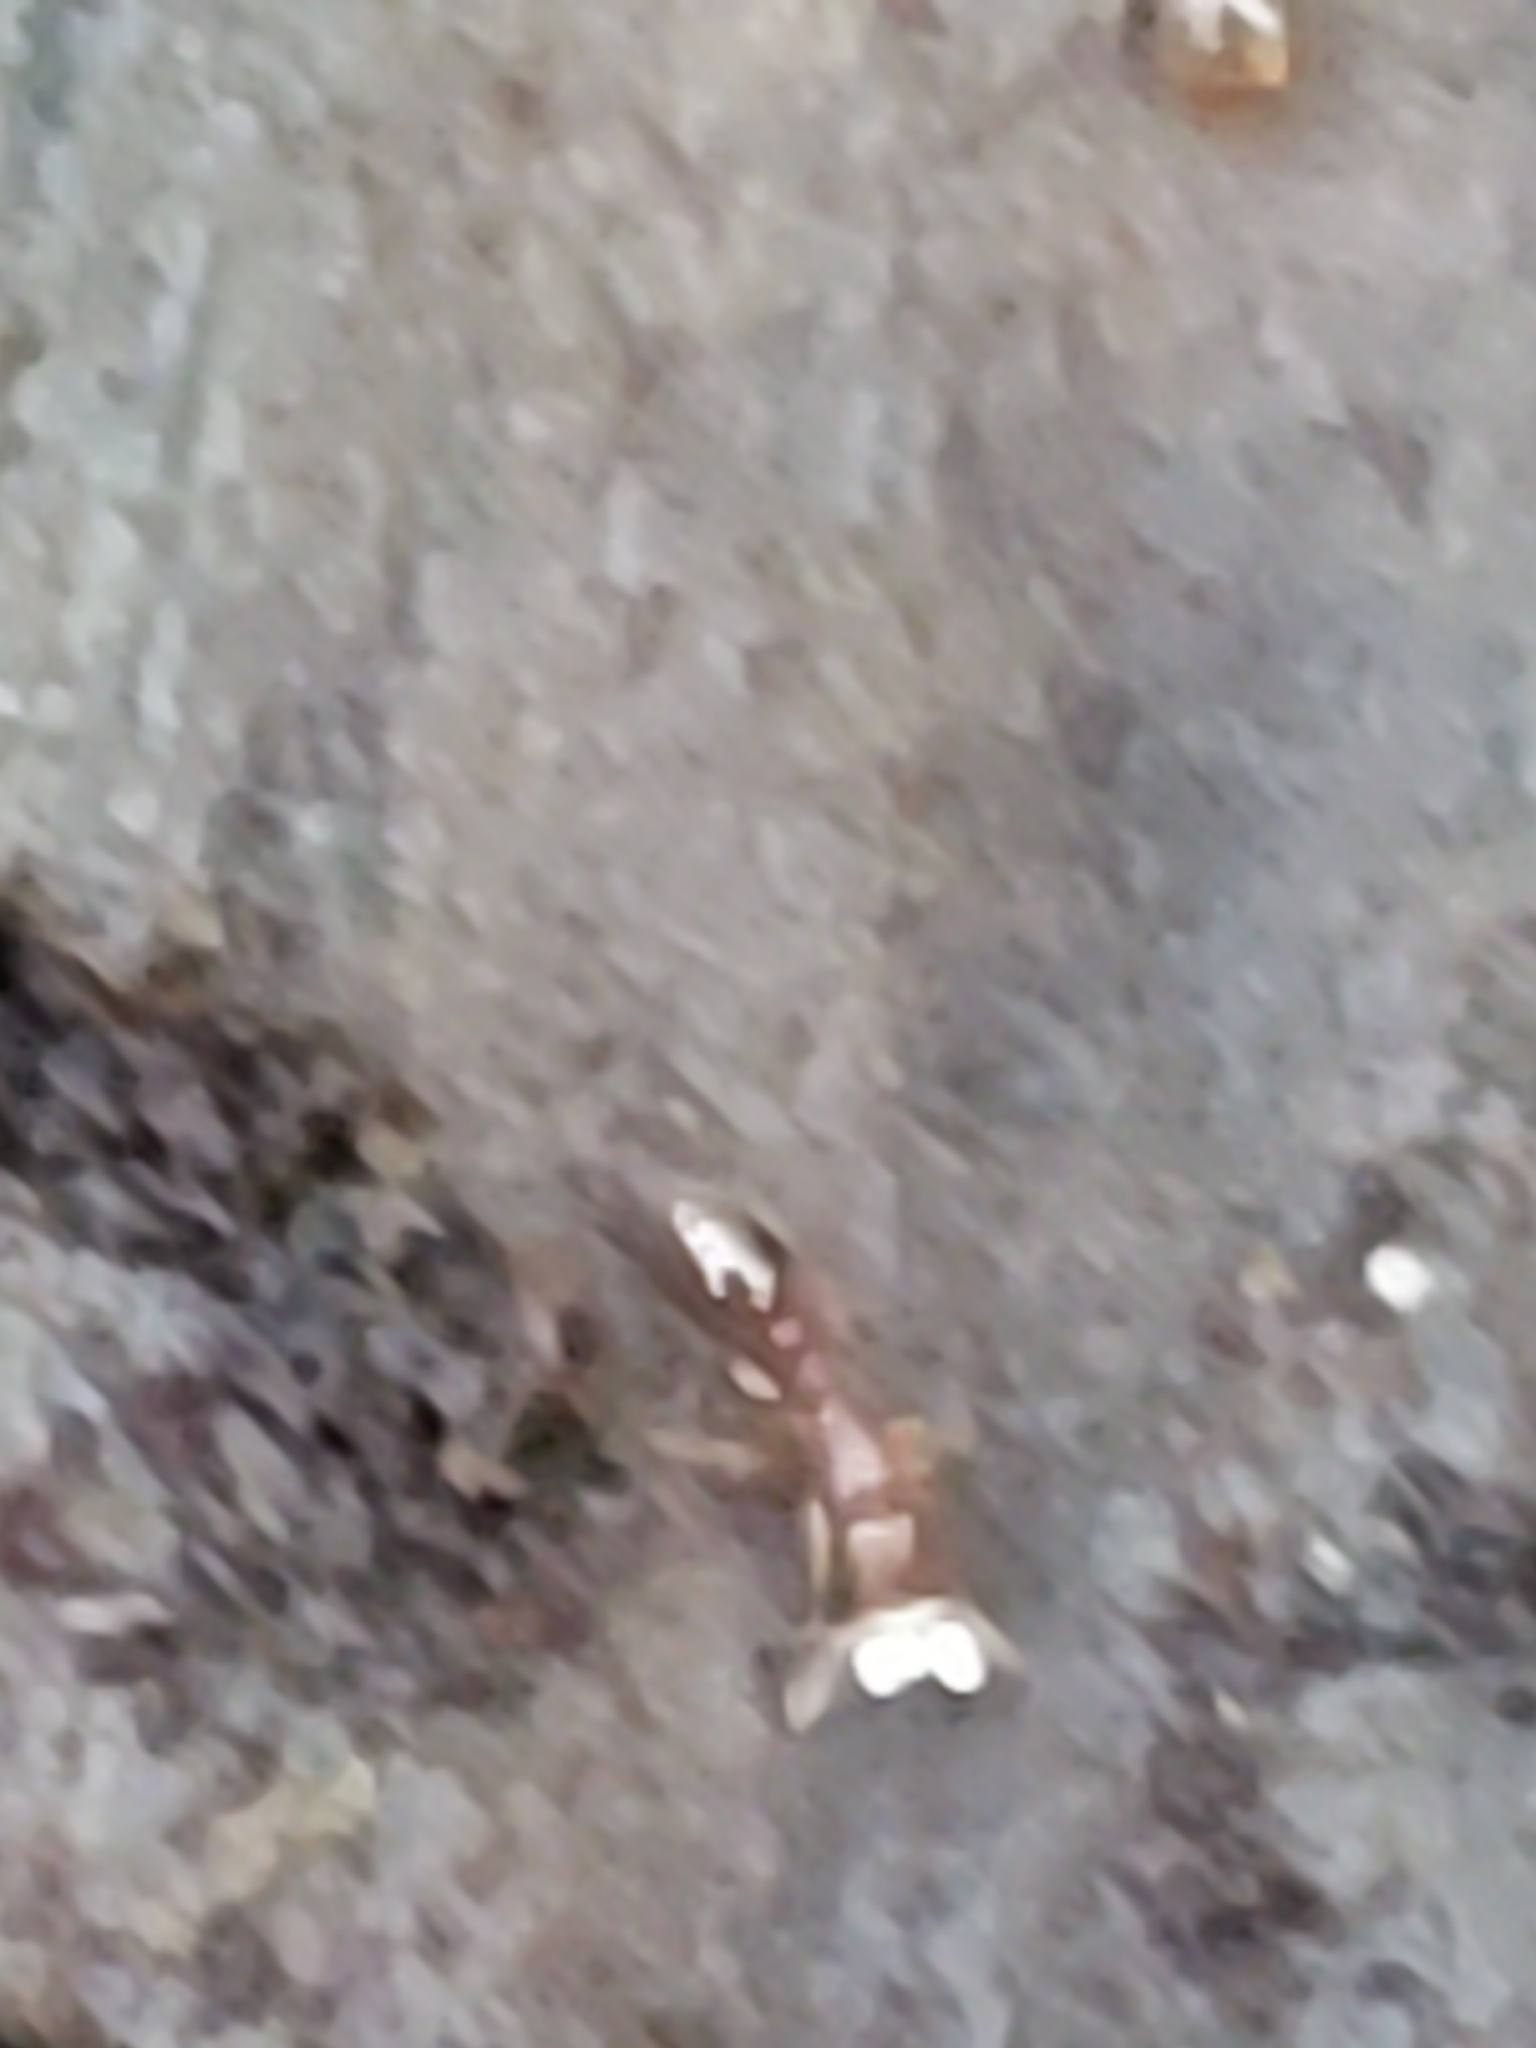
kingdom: Animalia
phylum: Arthropoda
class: Insecta
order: Hymenoptera
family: Formicidae
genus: Vollenhovia
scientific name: Vollenhovia emeryi
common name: Ant
